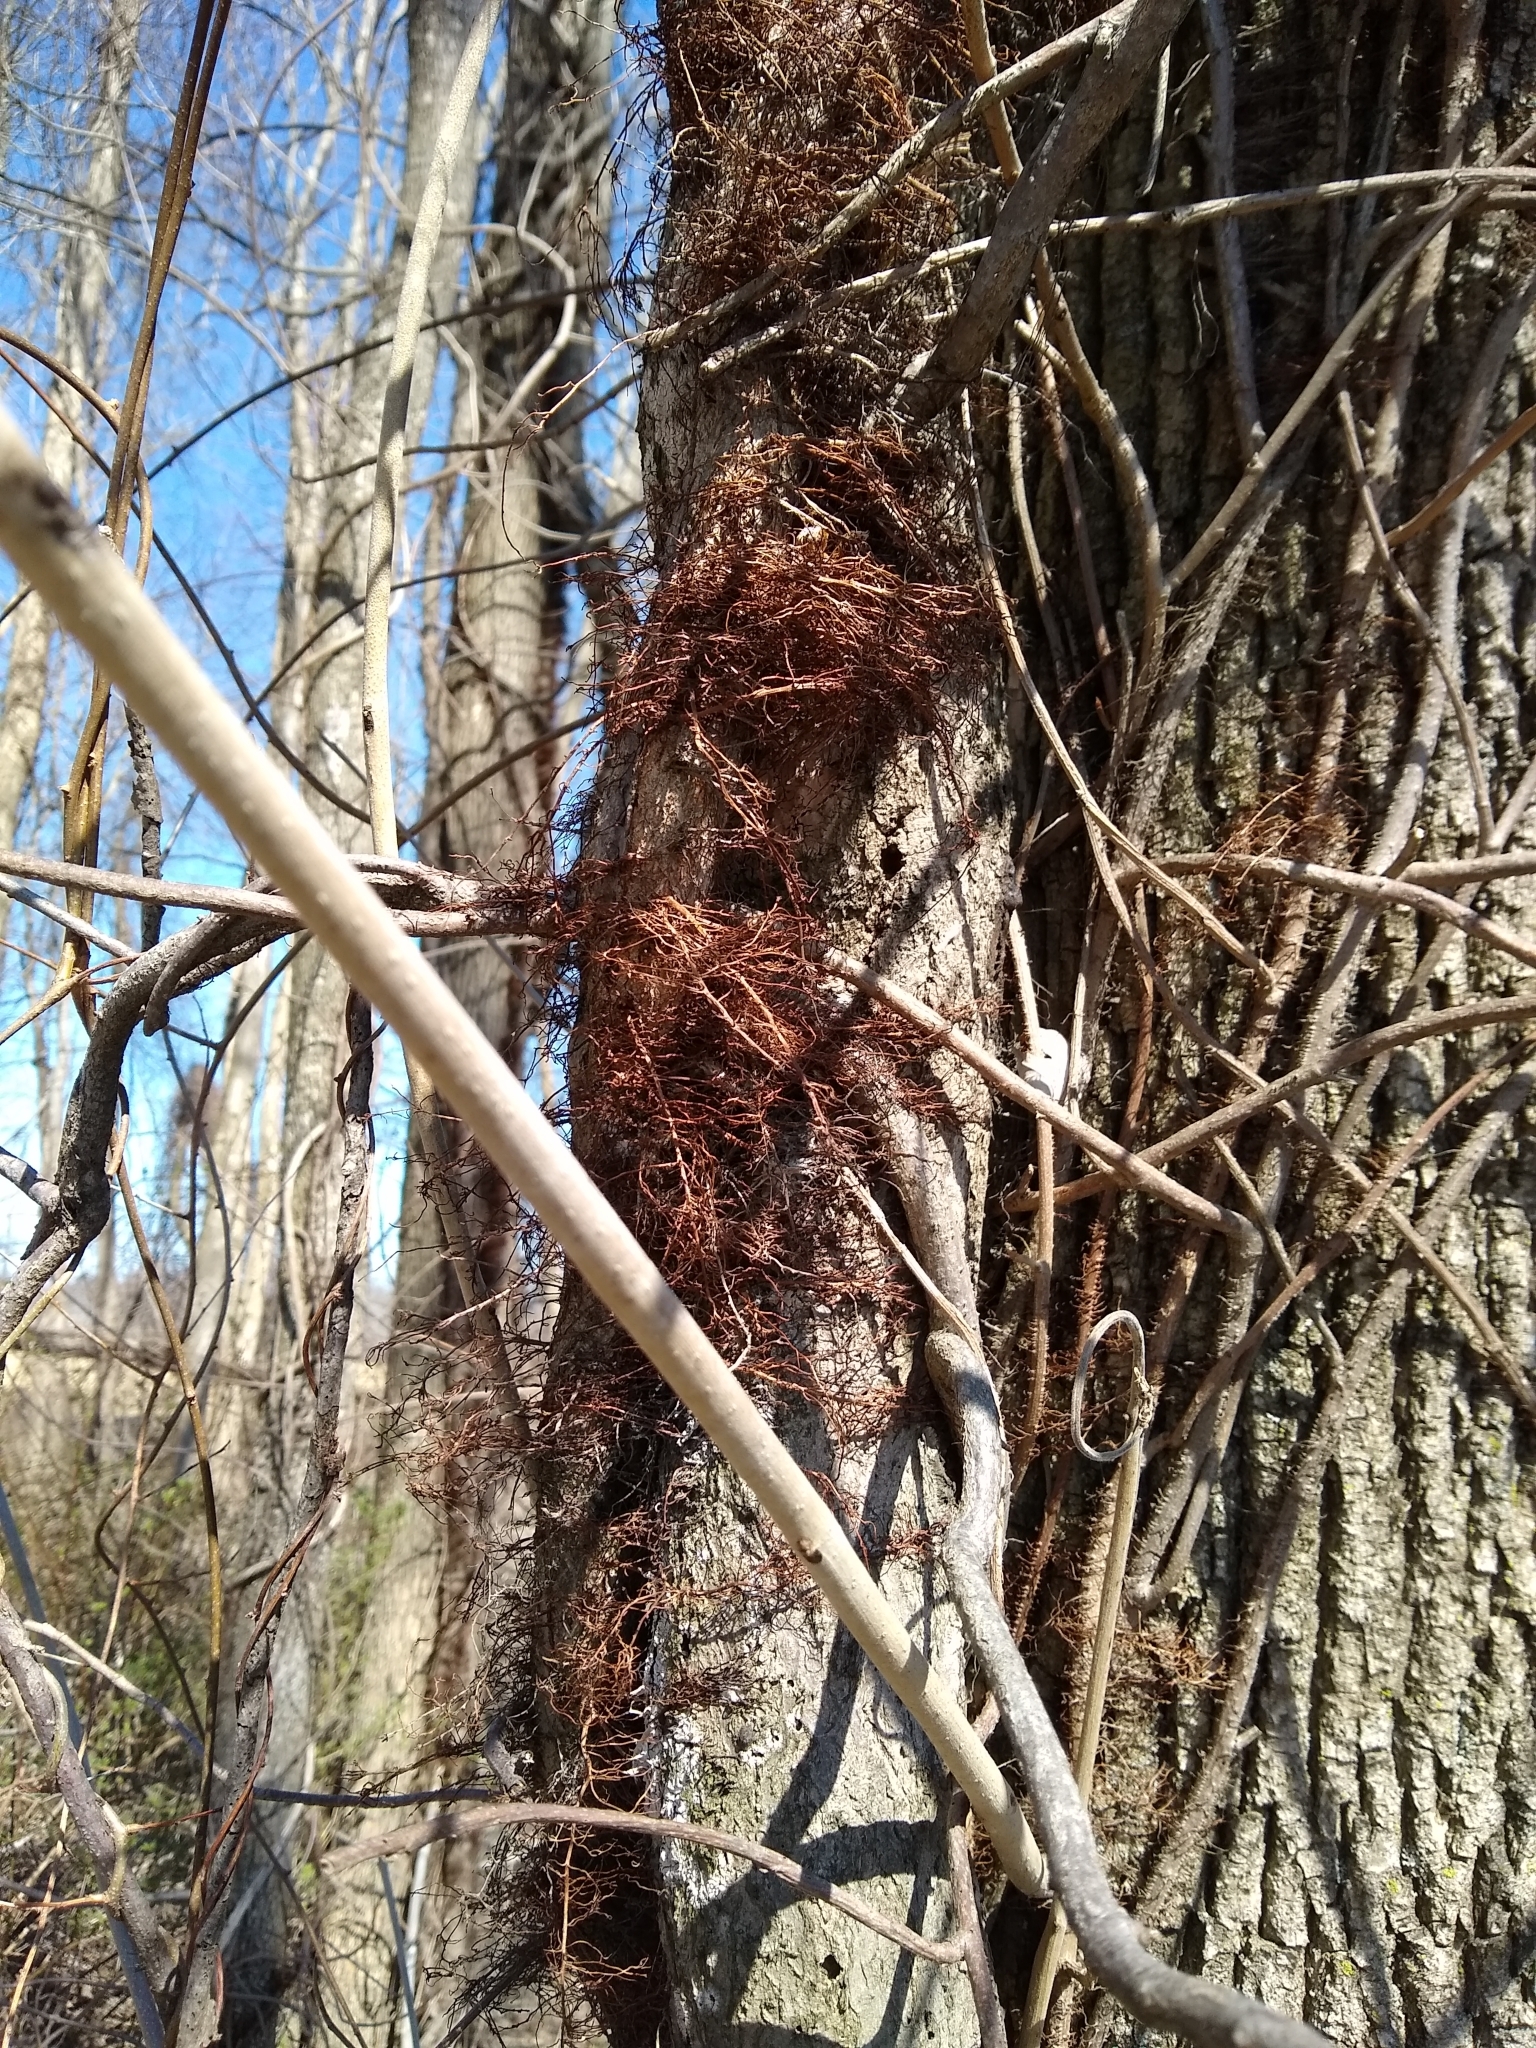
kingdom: Plantae
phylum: Tracheophyta
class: Magnoliopsida
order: Sapindales
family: Anacardiaceae
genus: Toxicodendron
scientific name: Toxicodendron radicans
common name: Poison ivy
